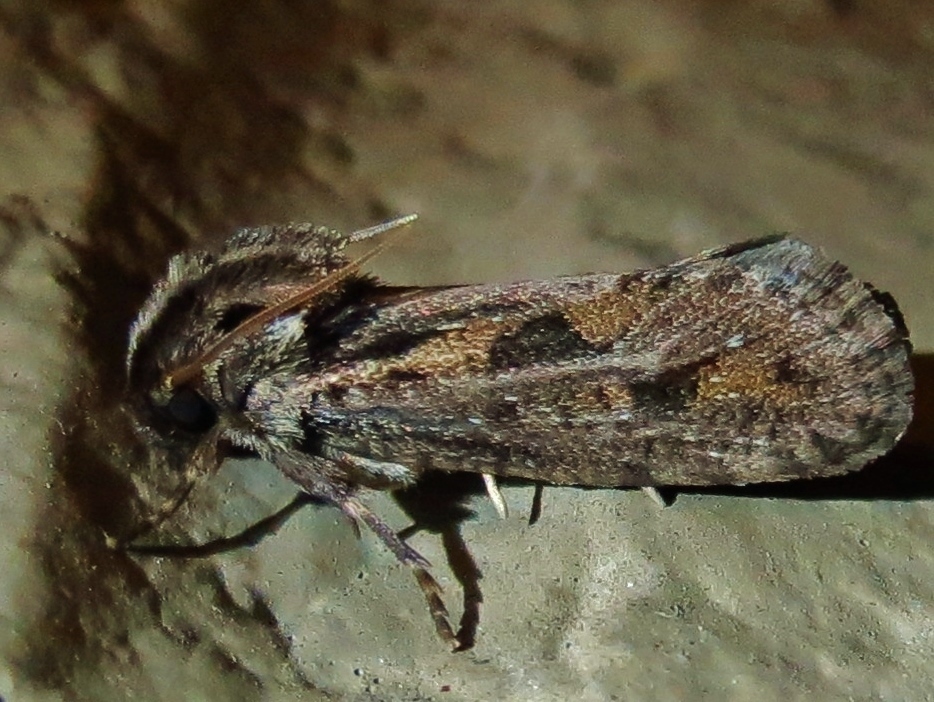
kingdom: Animalia
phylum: Arthropoda
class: Insecta
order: Lepidoptera
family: Tineidae
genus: Acrolophus
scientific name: Acrolophus popeanella
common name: Clemens' grass tubeworm moth
